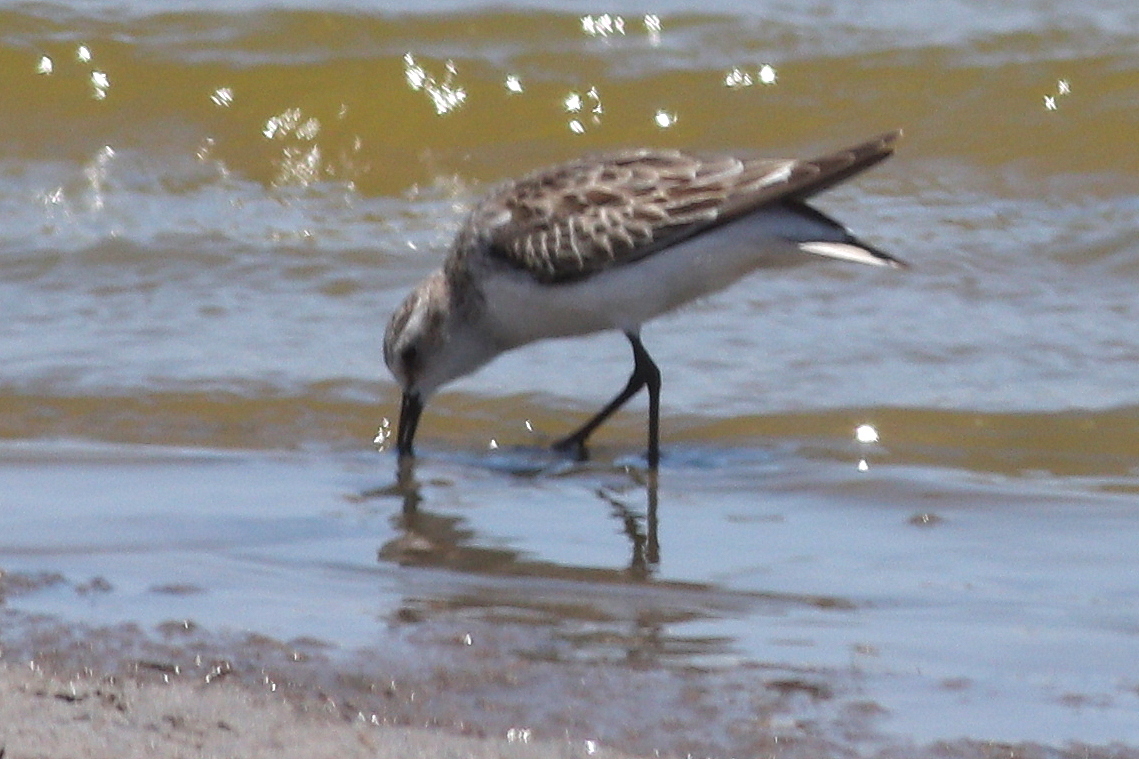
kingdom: Animalia
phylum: Chordata
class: Aves
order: Charadriiformes
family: Scolopacidae
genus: Calidris
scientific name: Calidris minuta
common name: Little stint
